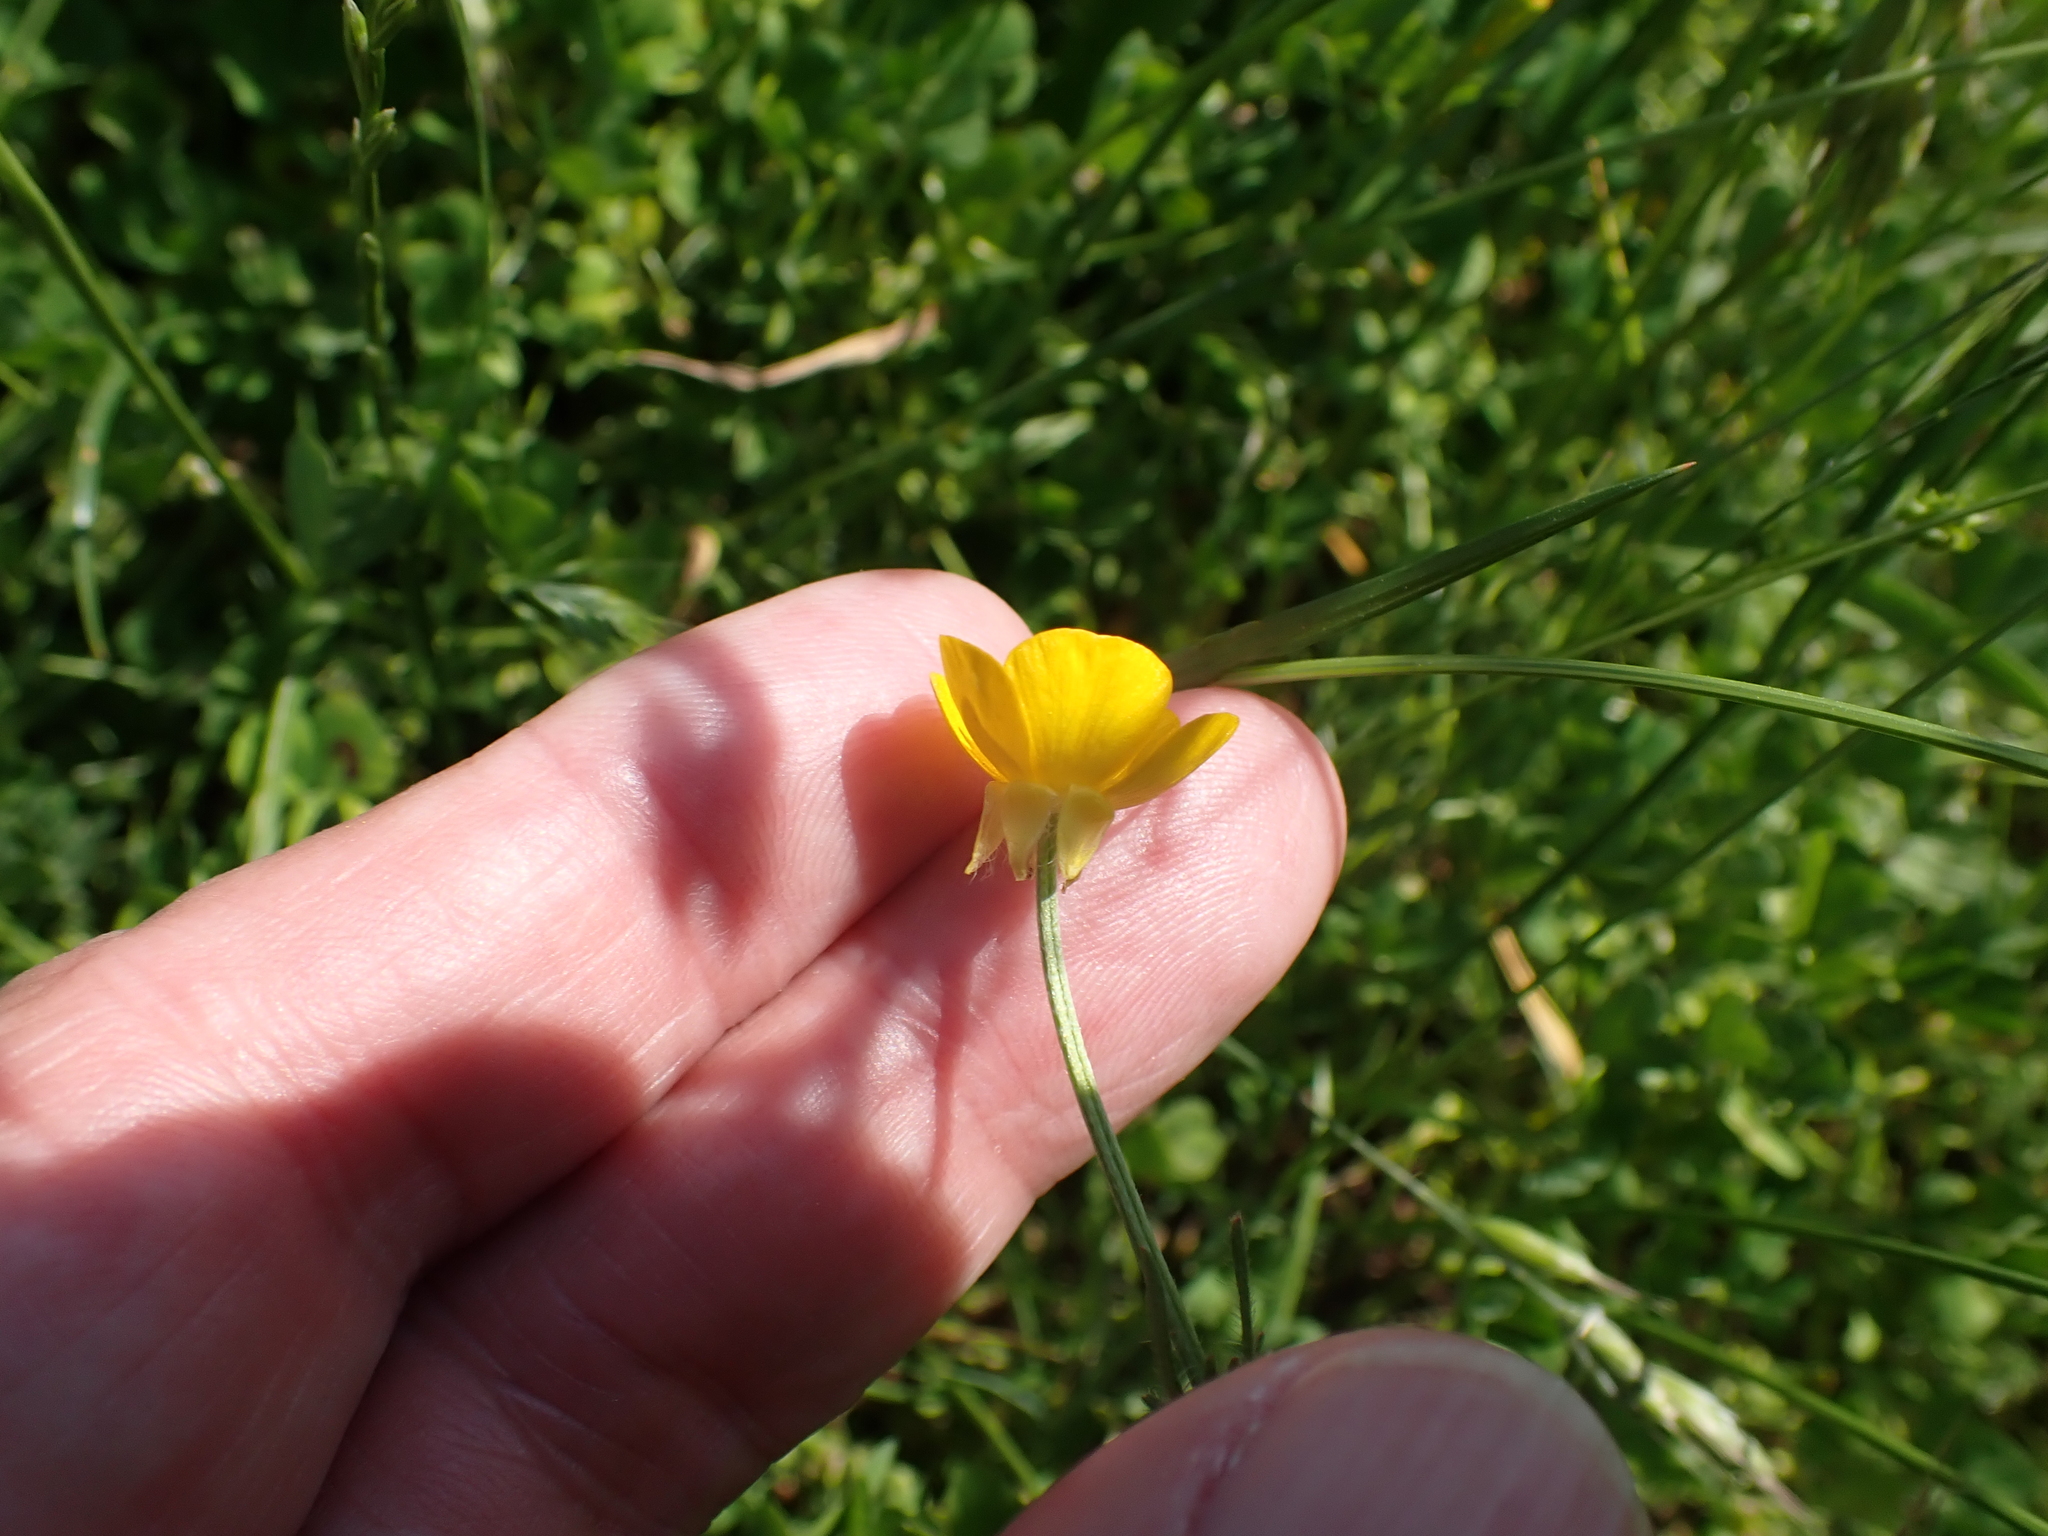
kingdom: Plantae
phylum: Tracheophyta
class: Magnoliopsida
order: Ranunculales
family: Ranunculaceae
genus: Ranunculus
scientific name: Ranunculus bulbosus
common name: Bulbous buttercup
